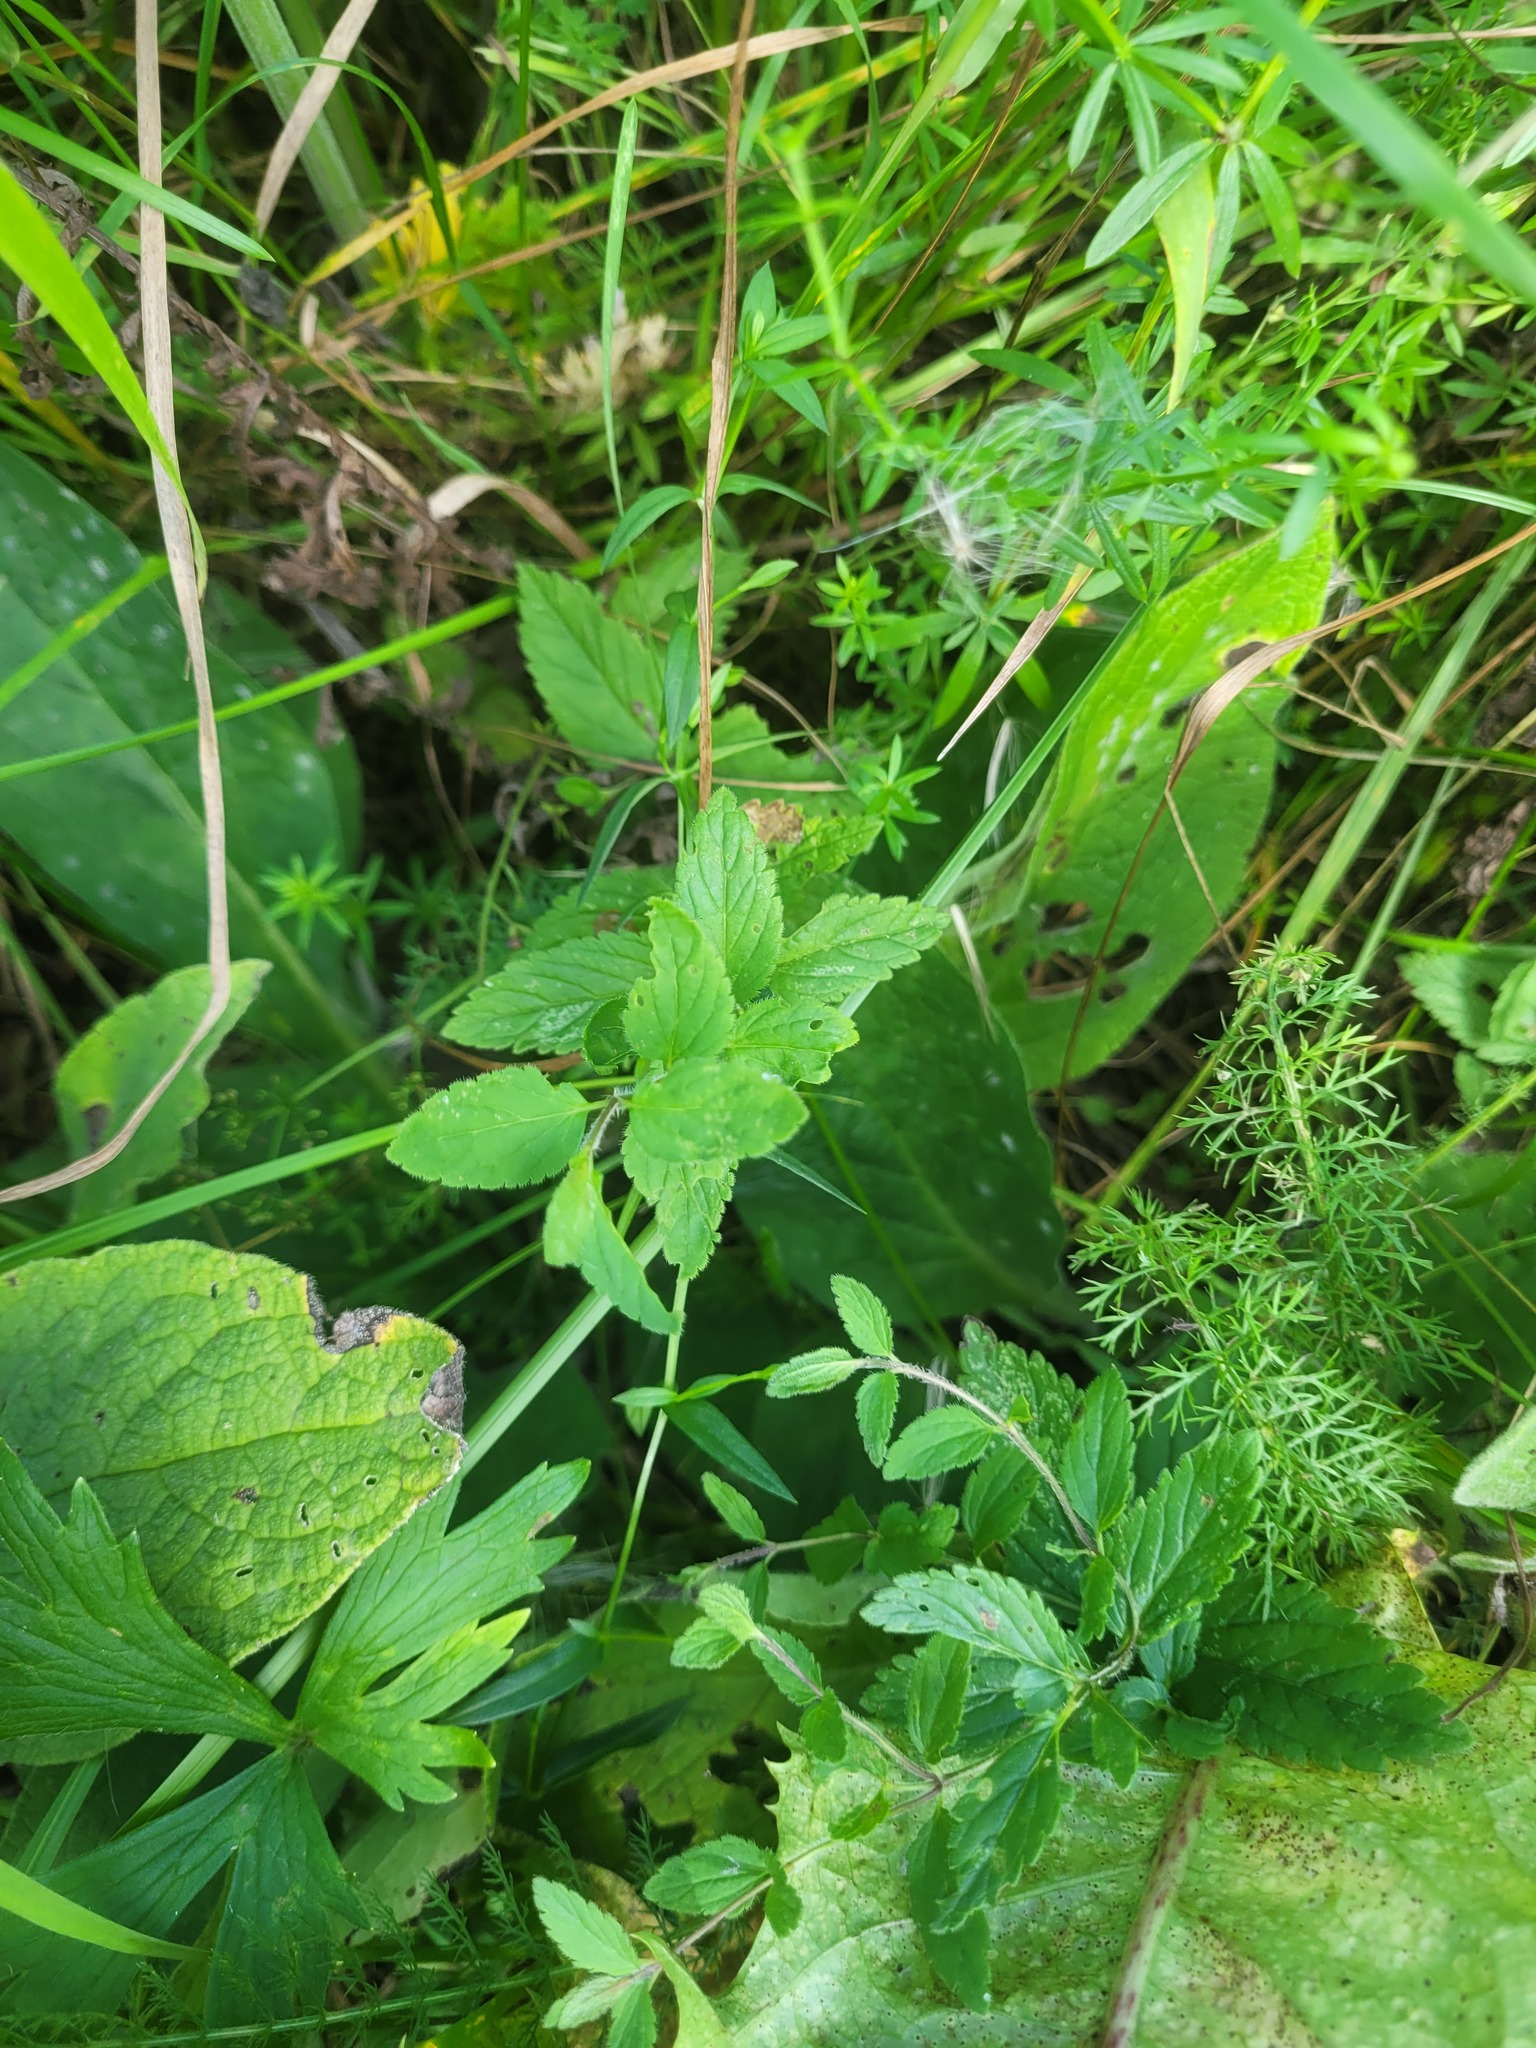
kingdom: Plantae
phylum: Tracheophyta
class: Magnoliopsida
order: Lamiales
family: Plantaginaceae
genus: Veronica
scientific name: Veronica chamaedrys
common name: Germander speedwell
